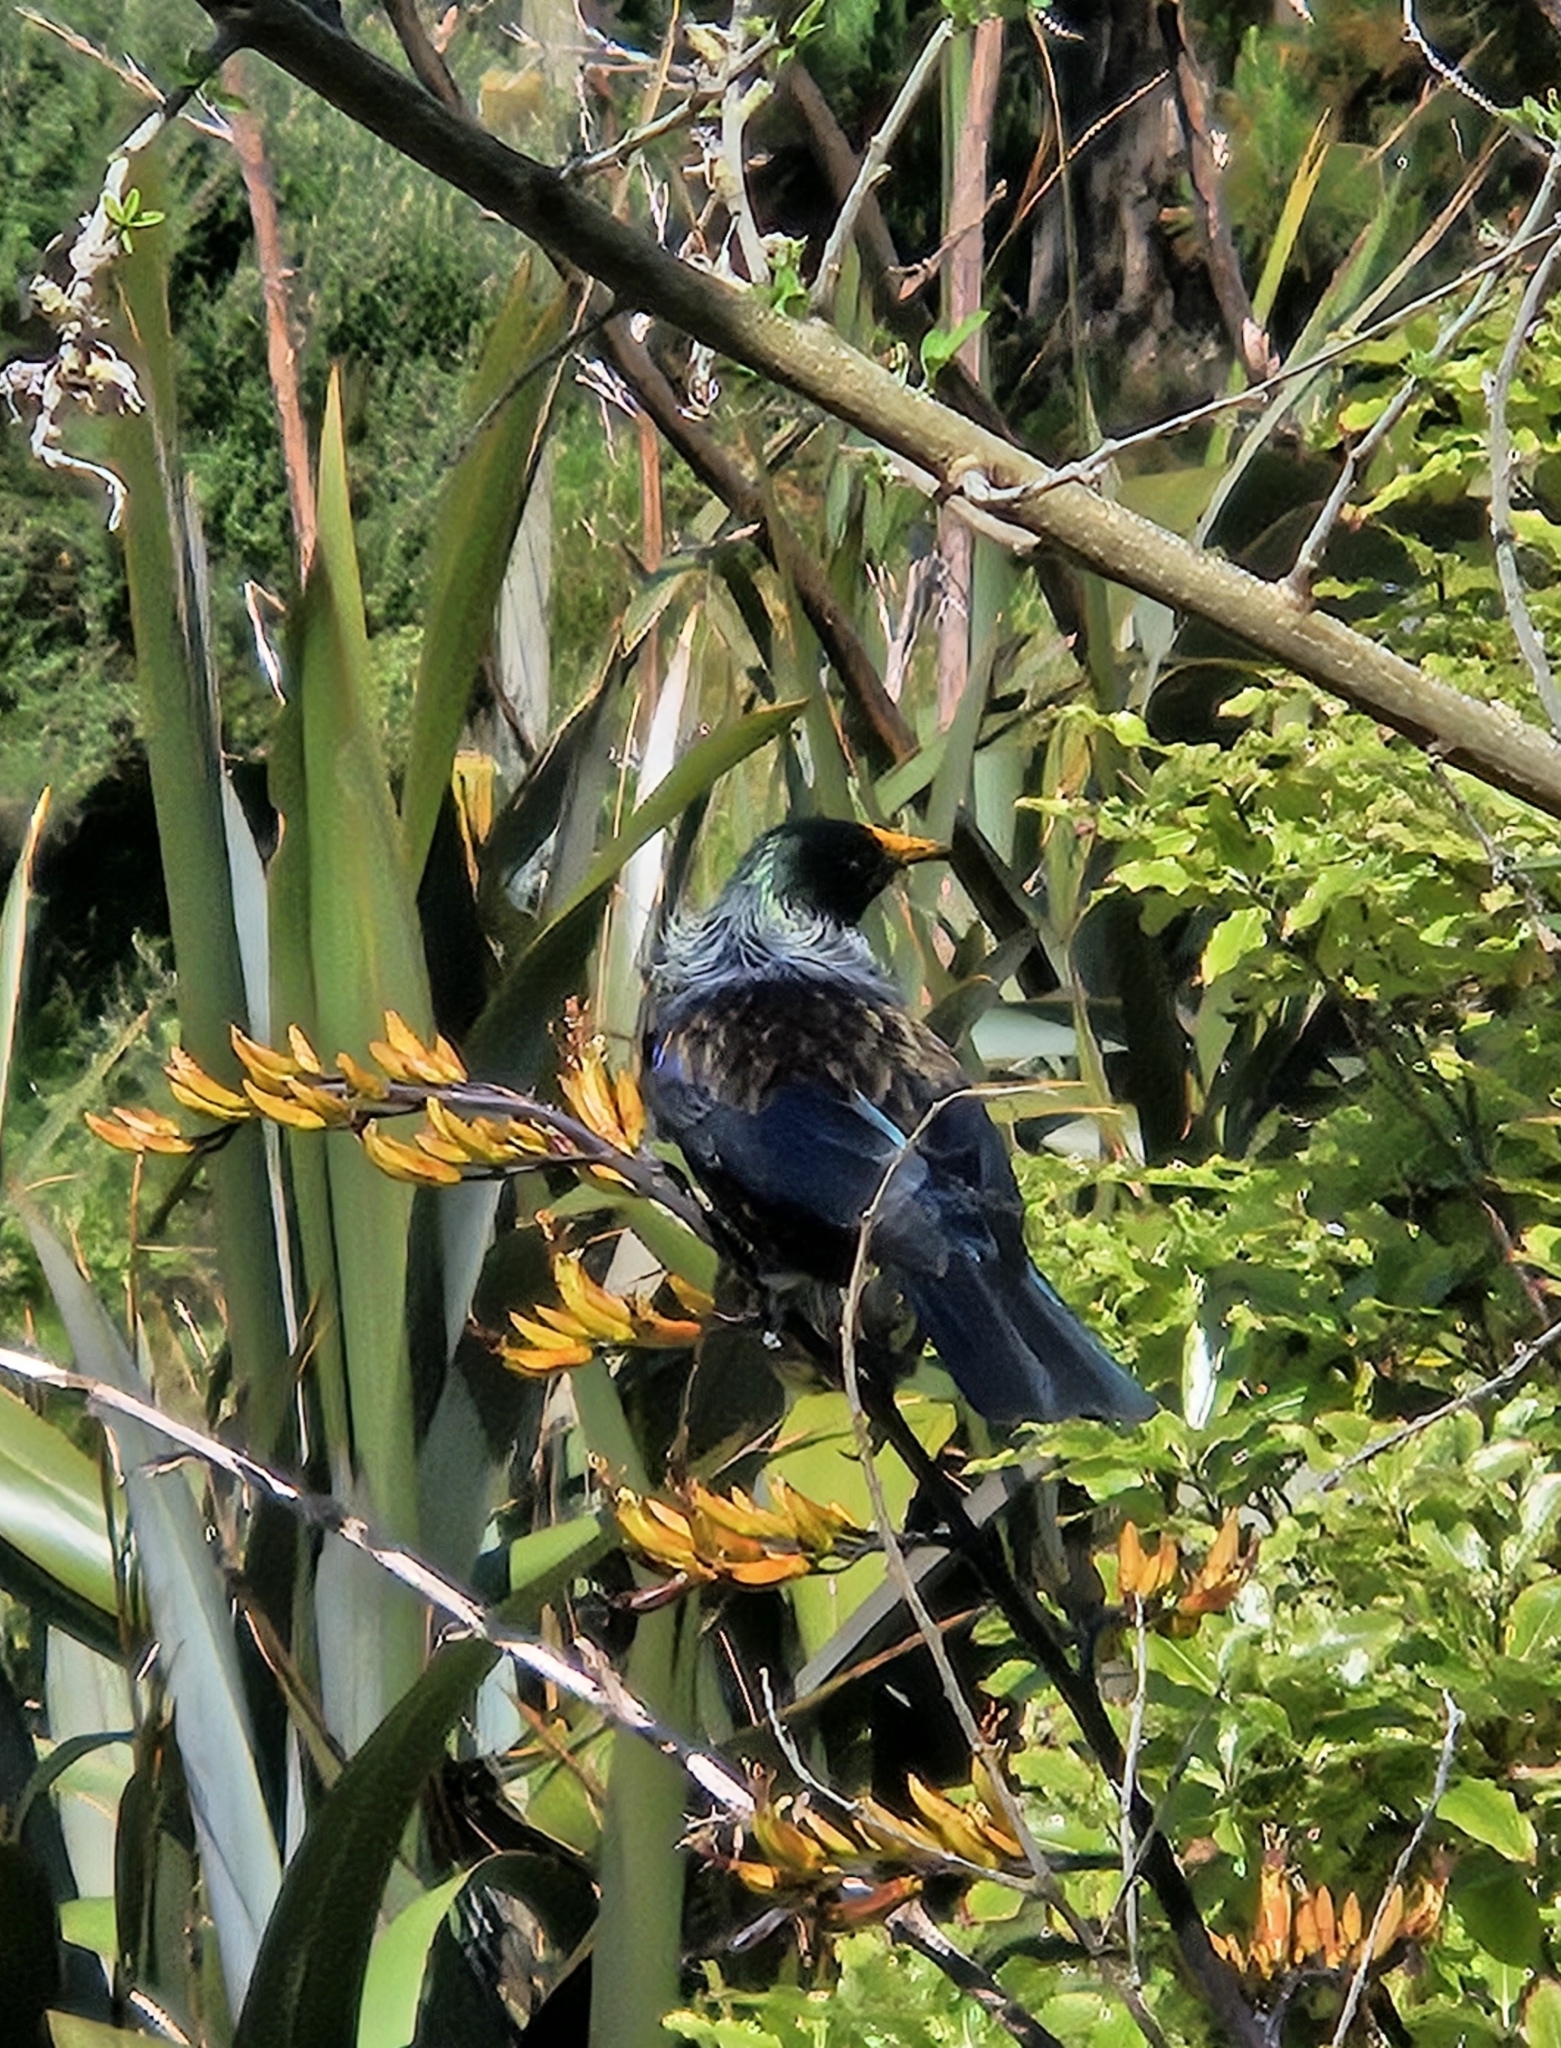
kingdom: Animalia
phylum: Chordata
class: Aves
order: Passeriformes
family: Meliphagidae
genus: Prosthemadera
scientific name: Prosthemadera novaeseelandiae
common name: Tui
